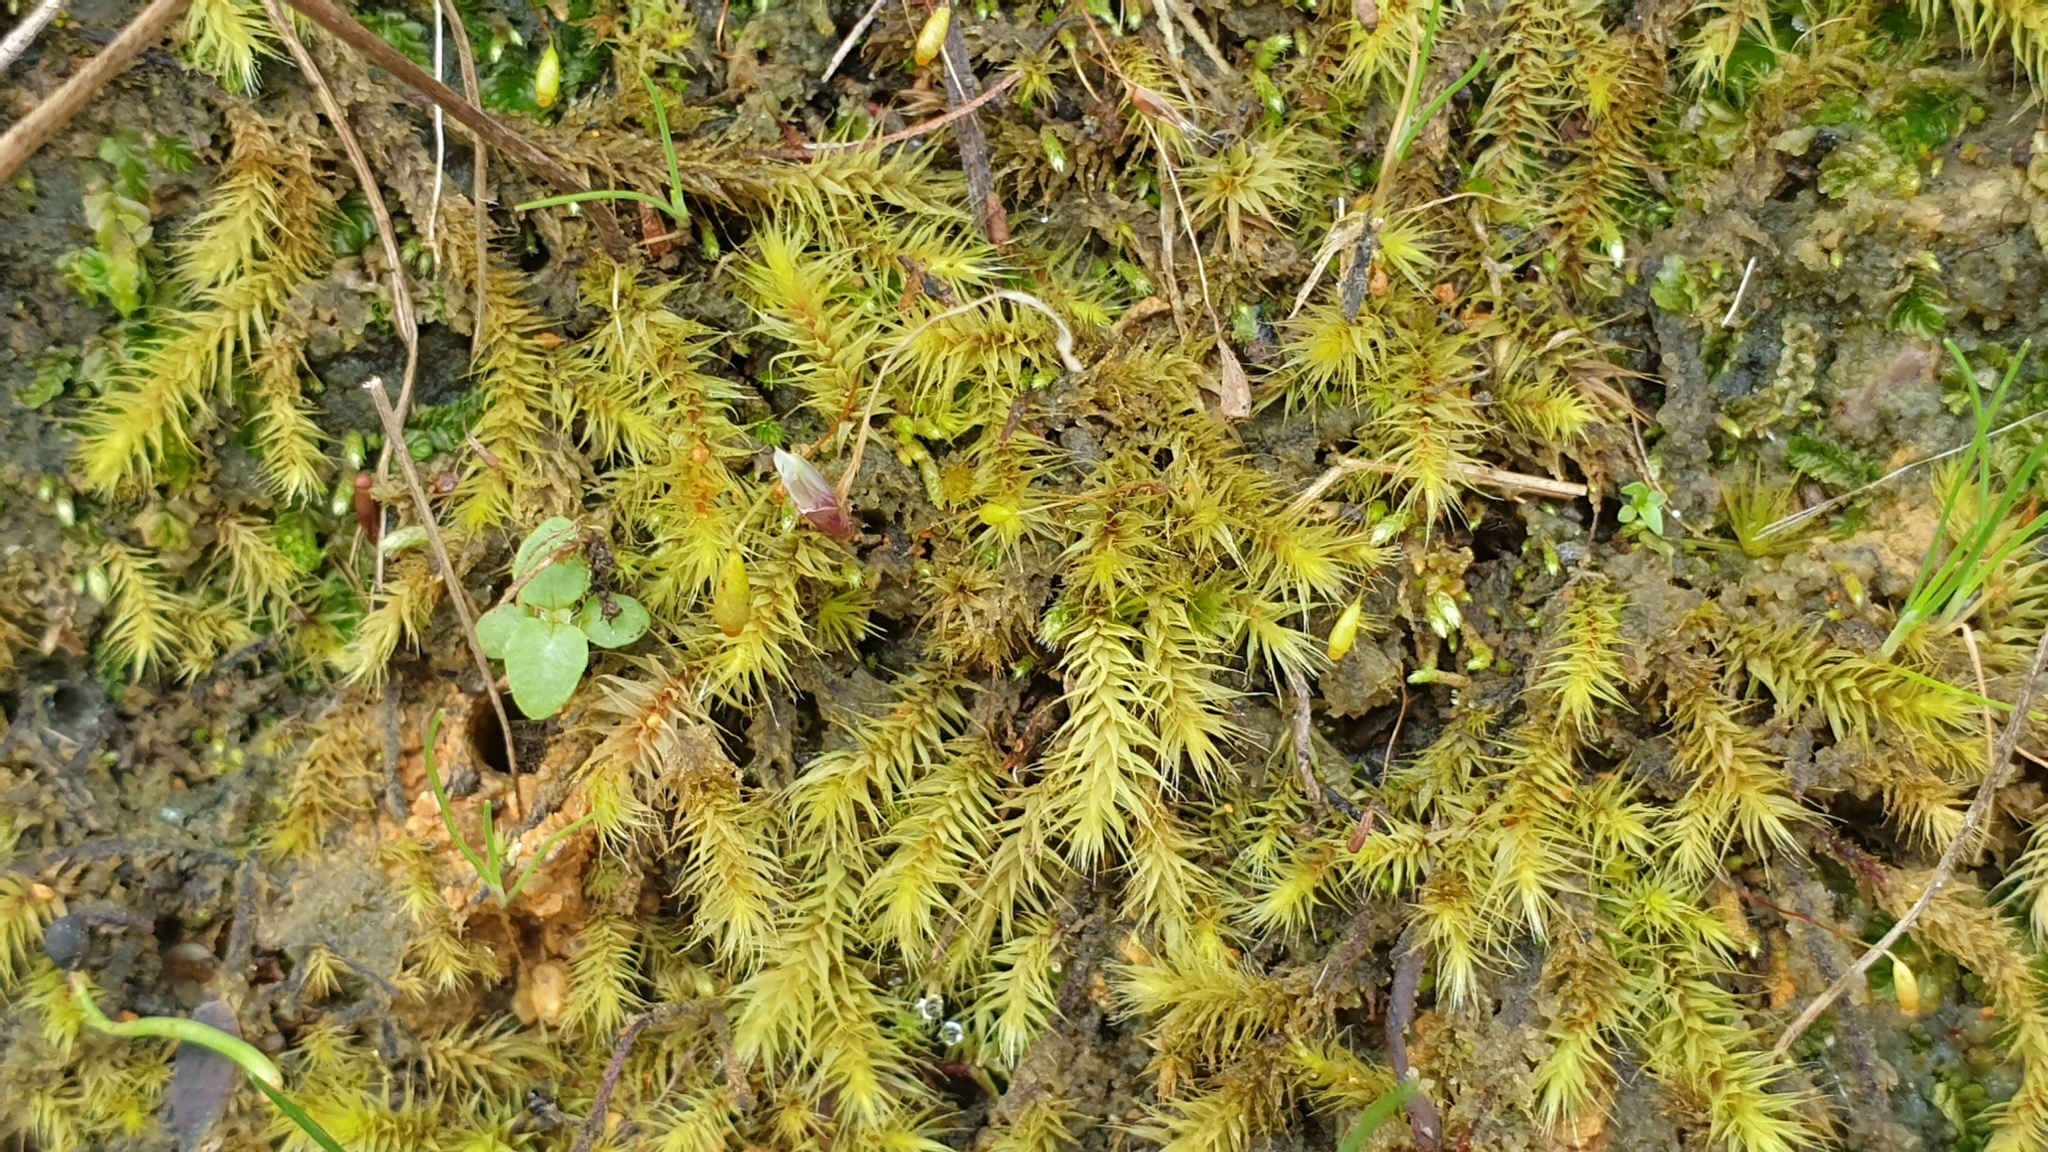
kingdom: Plantae
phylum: Bryophyta
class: Bryopsida
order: Bartramiales
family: Bartramiaceae
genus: Breutelia
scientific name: Breutelia affinis
